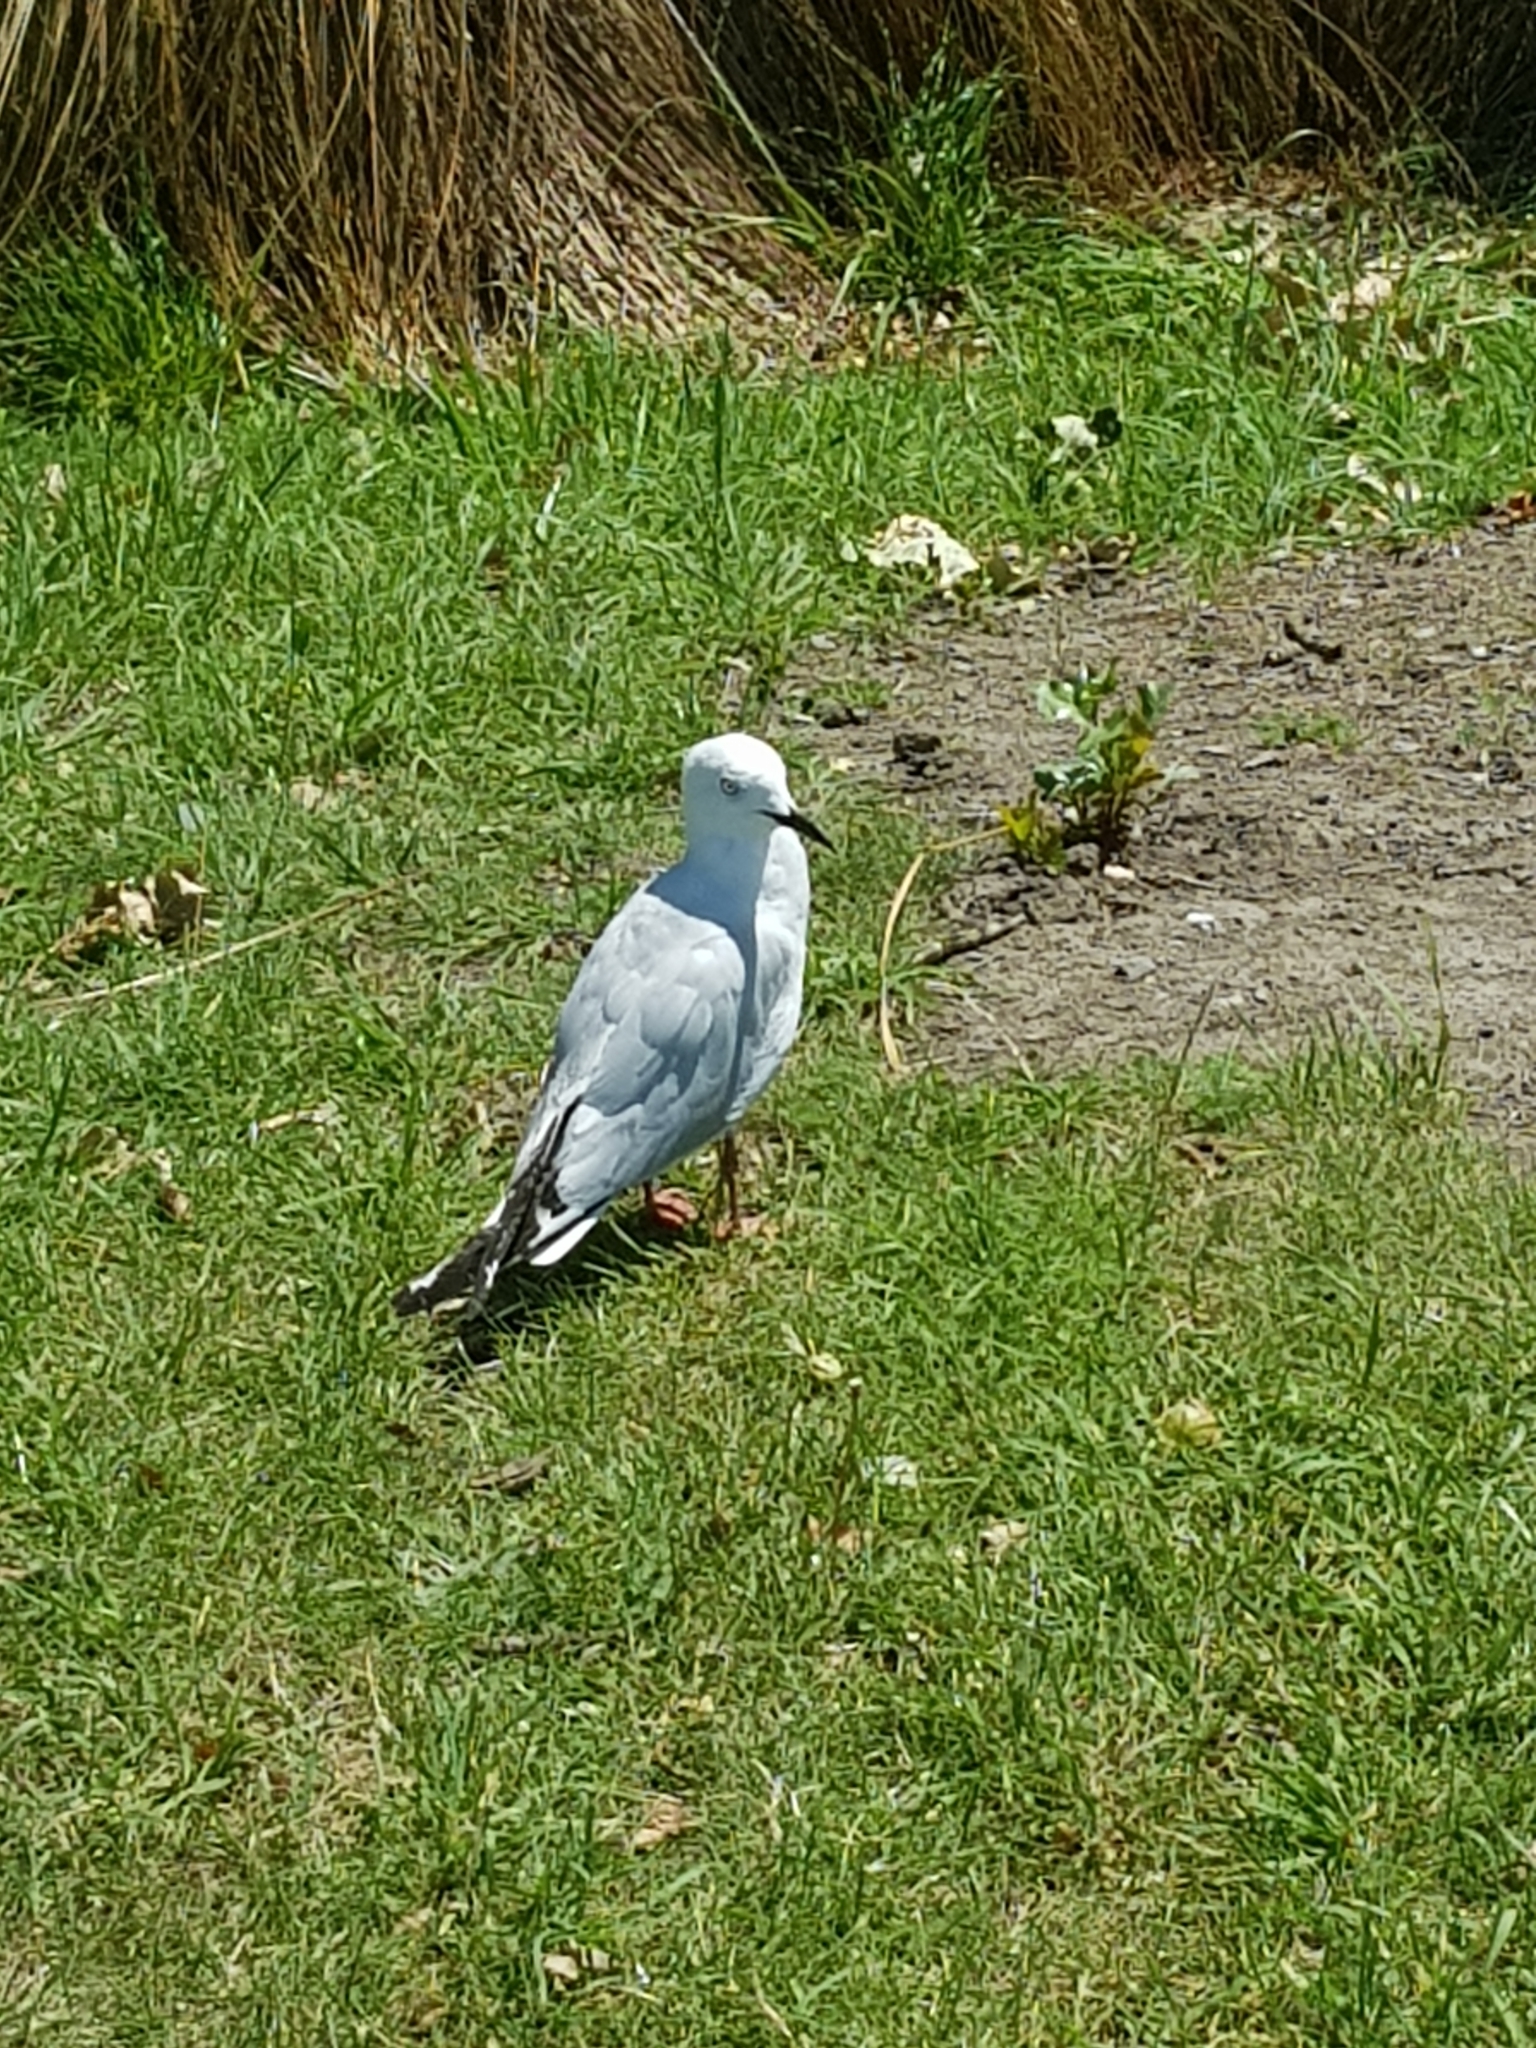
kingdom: Animalia
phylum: Chordata
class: Aves
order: Charadriiformes
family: Laridae
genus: Chroicocephalus
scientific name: Chroicocephalus bulleri
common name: Black-billed gull
